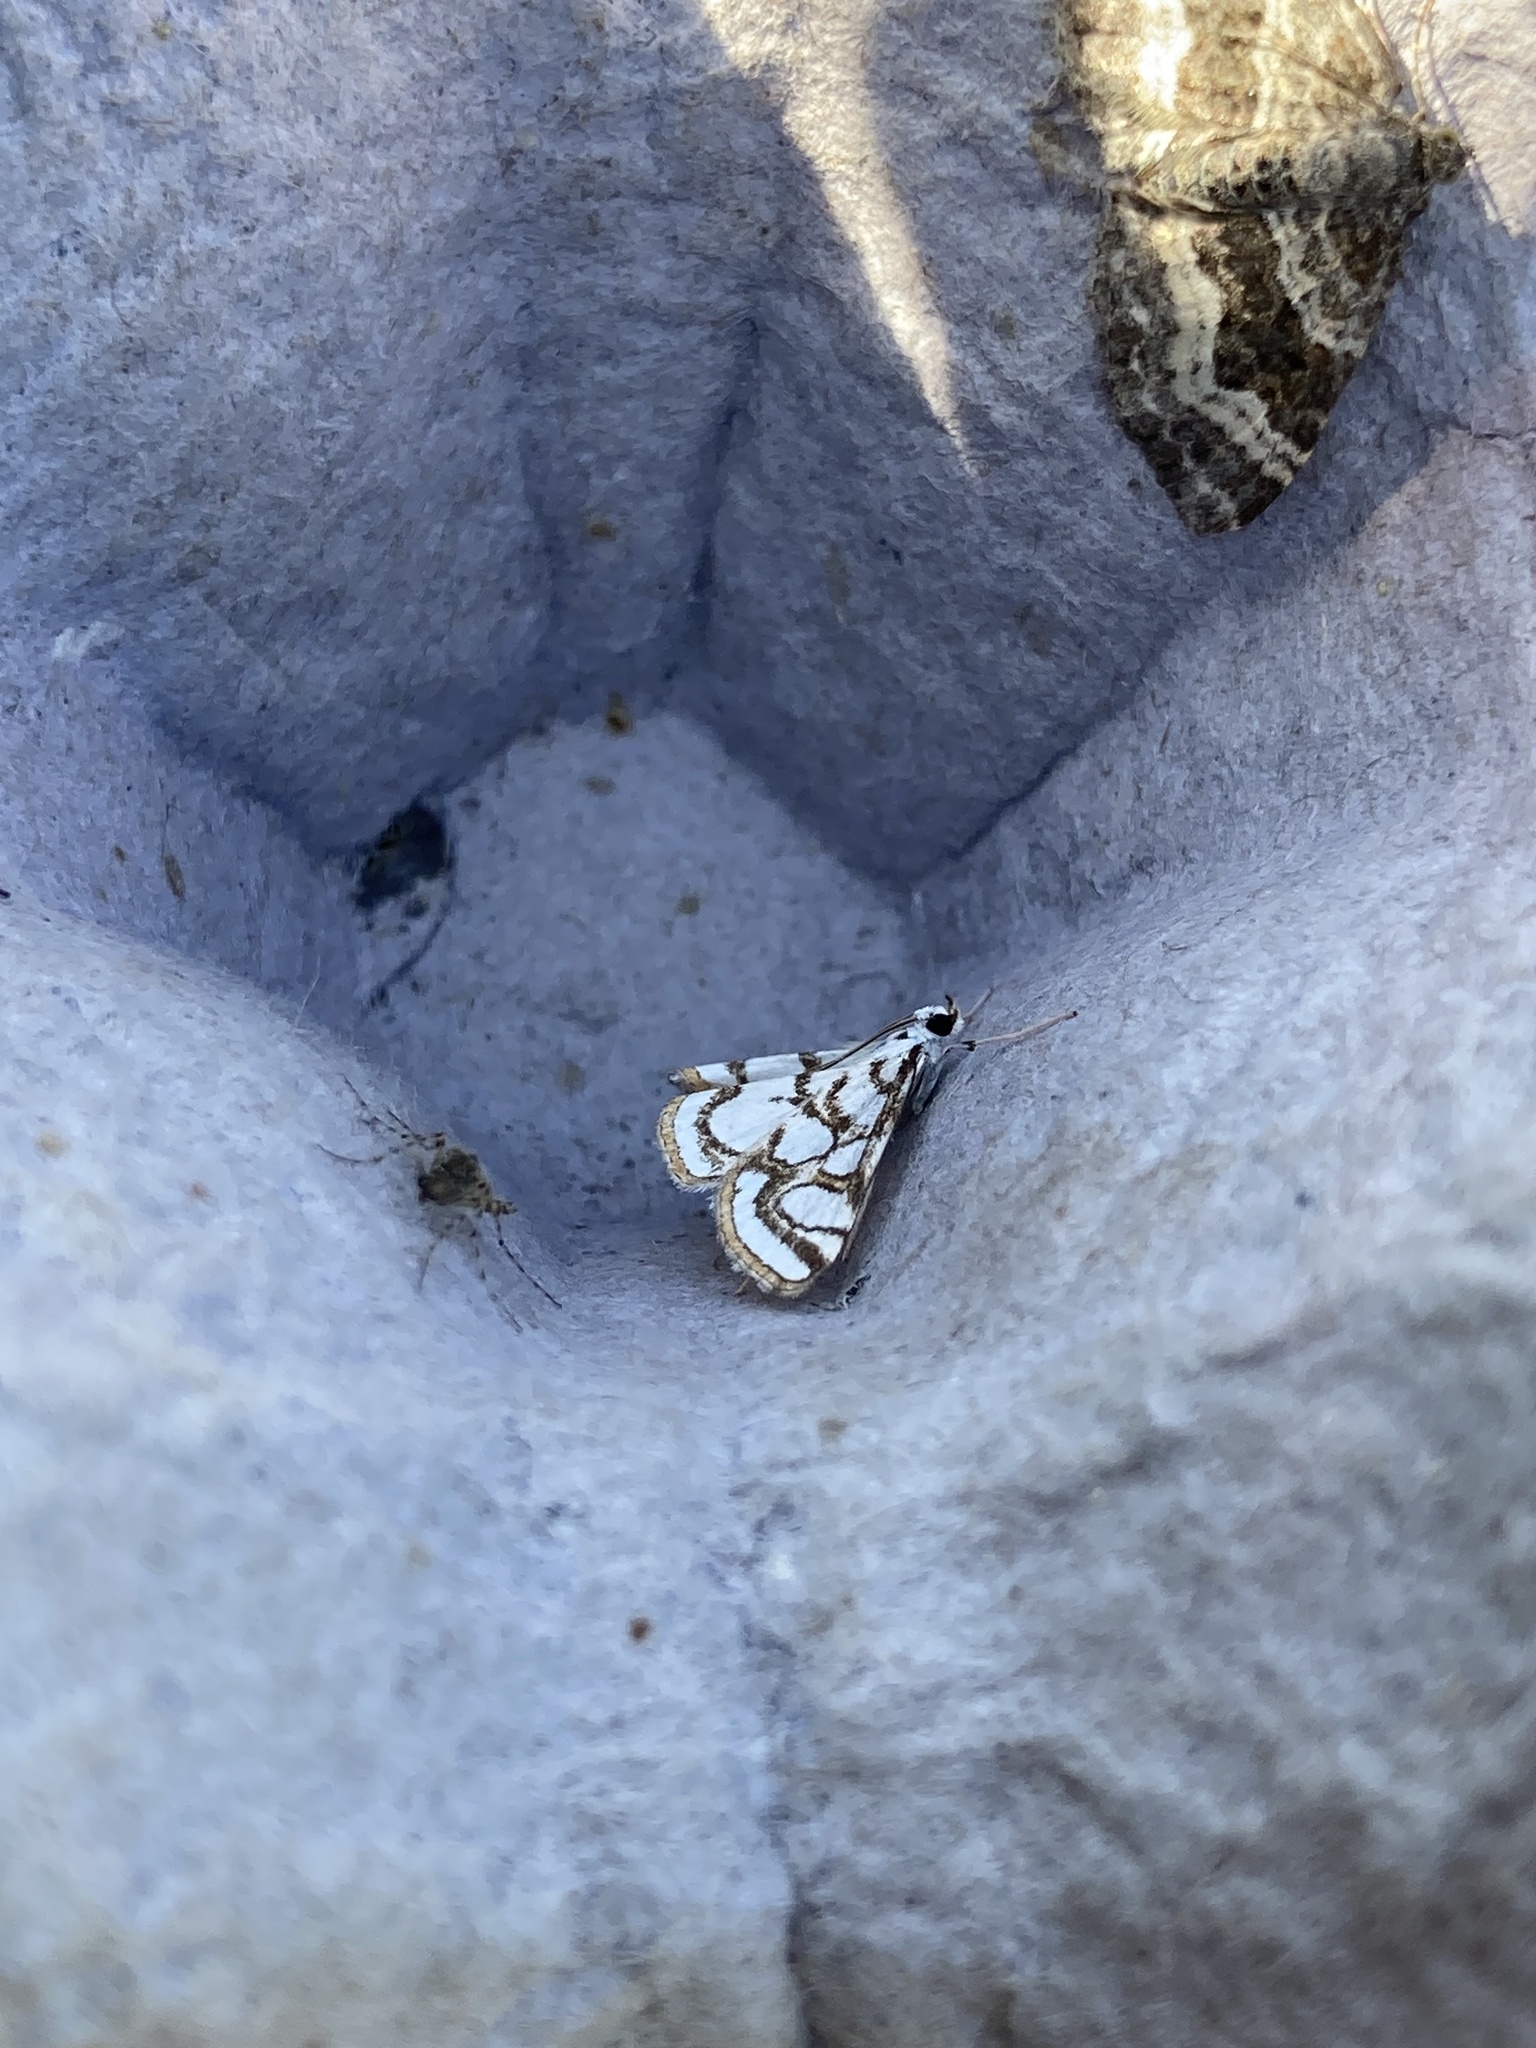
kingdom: Animalia
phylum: Arthropoda
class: Insecta
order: Lepidoptera
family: Crambidae
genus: Nymphula
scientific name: Nymphula nitidulata
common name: Beautiful china mark
